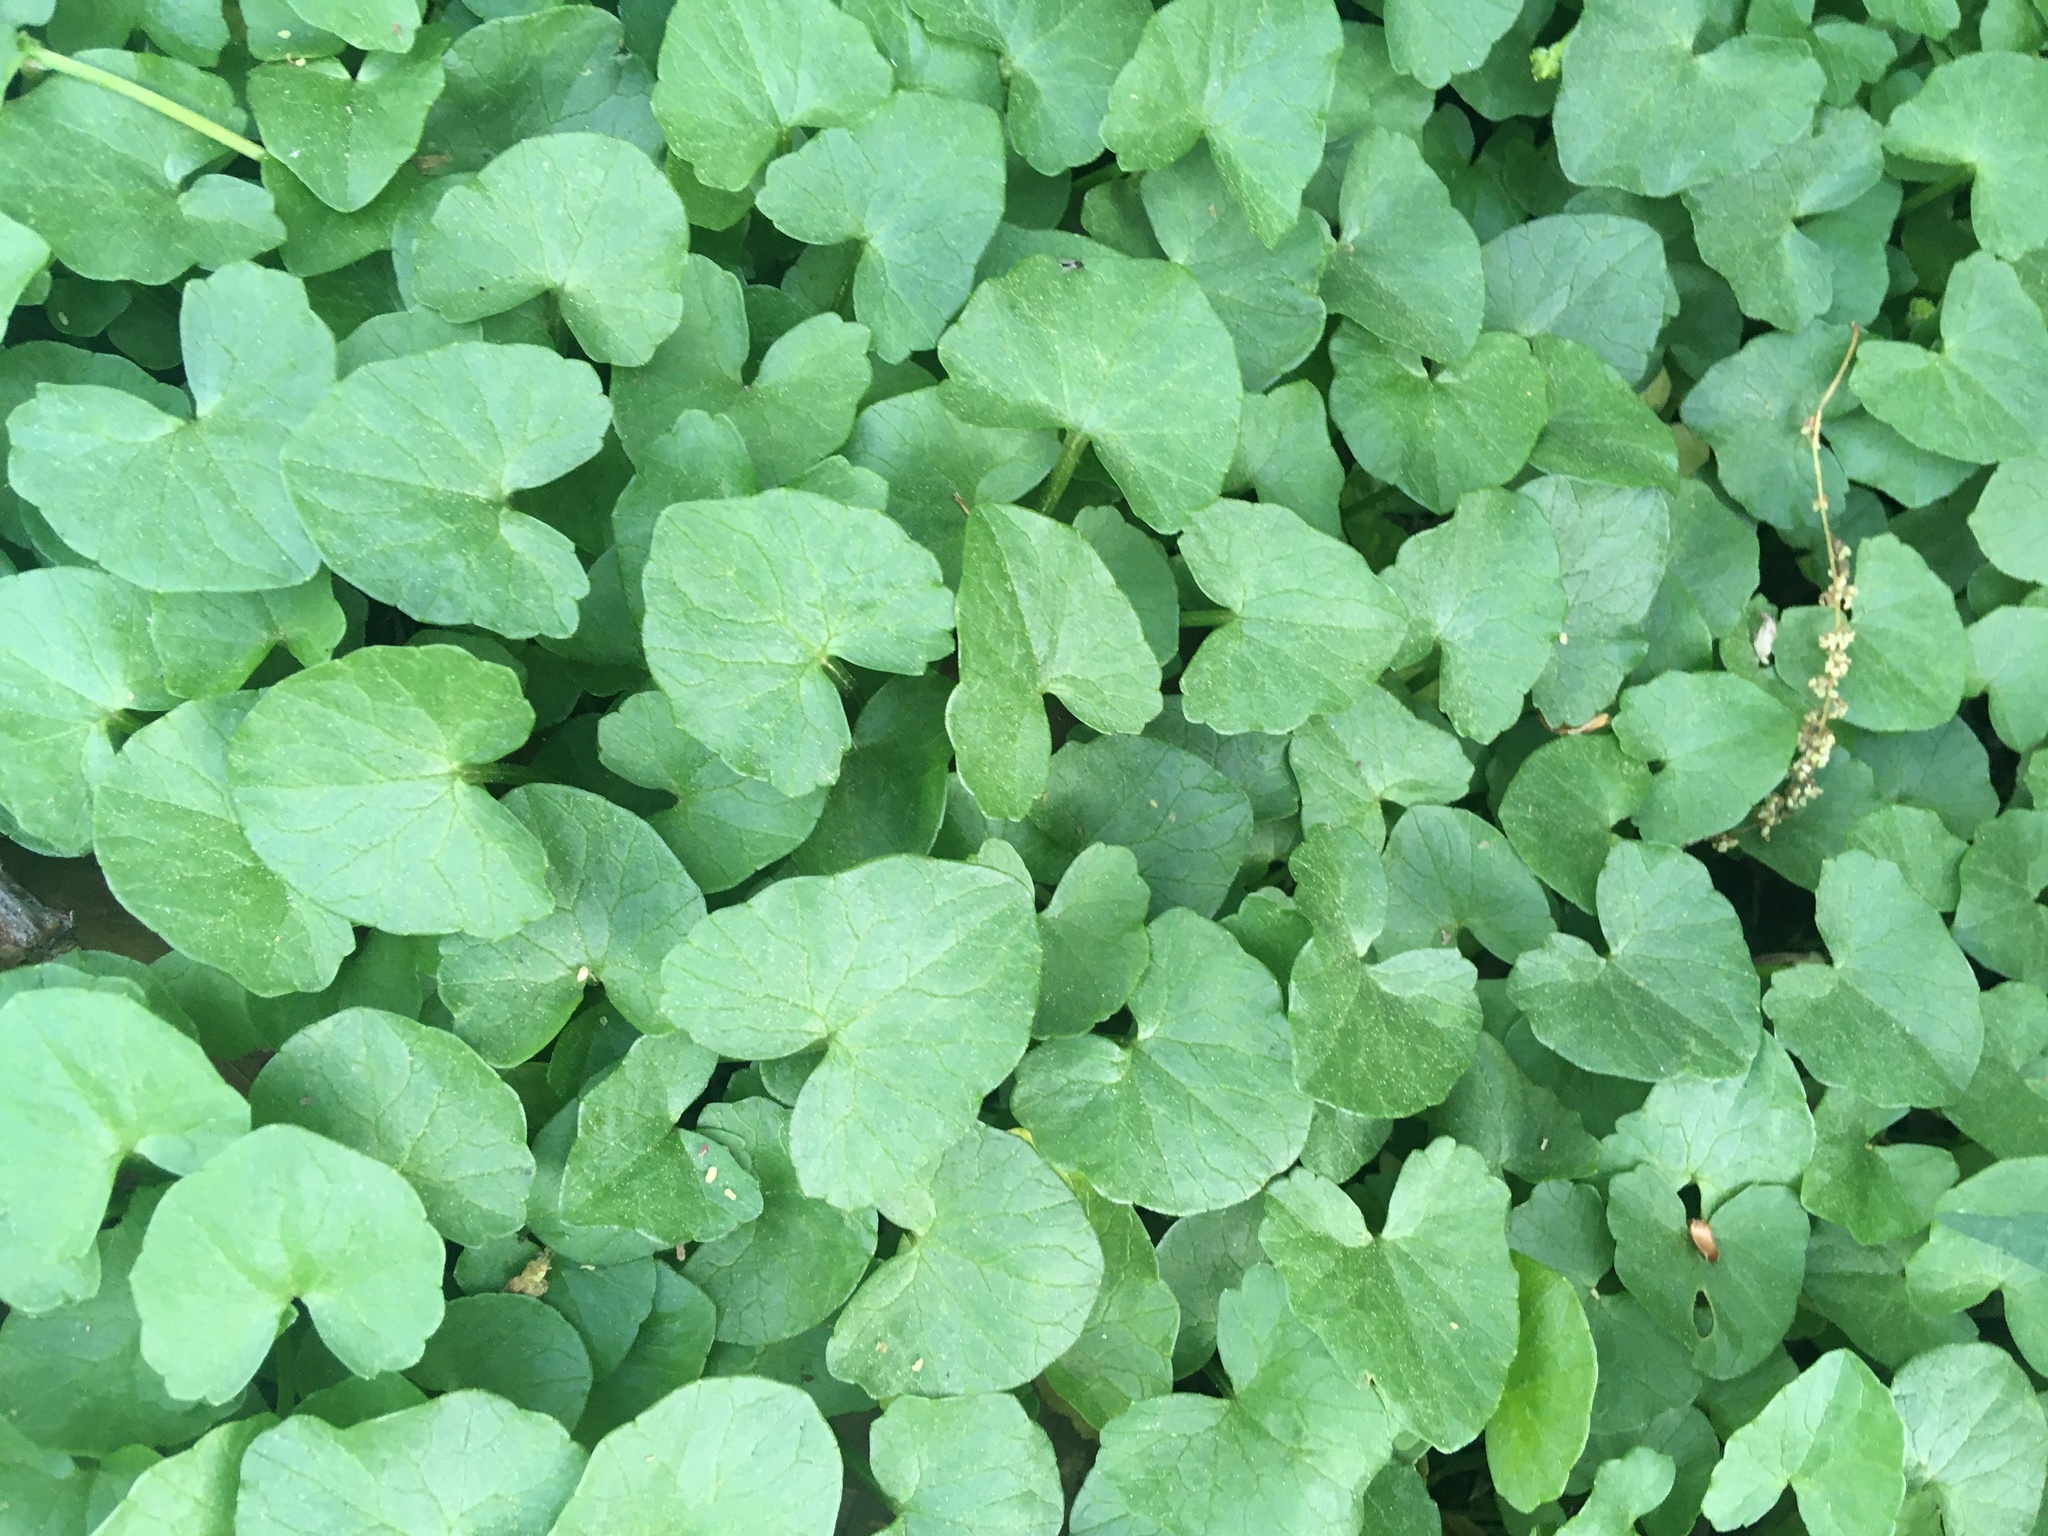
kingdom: Plantae
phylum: Tracheophyta
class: Magnoliopsida
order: Ranunculales
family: Ranunculaceae
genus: Ficaria
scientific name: Ficaria verna
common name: Lesser celandine
